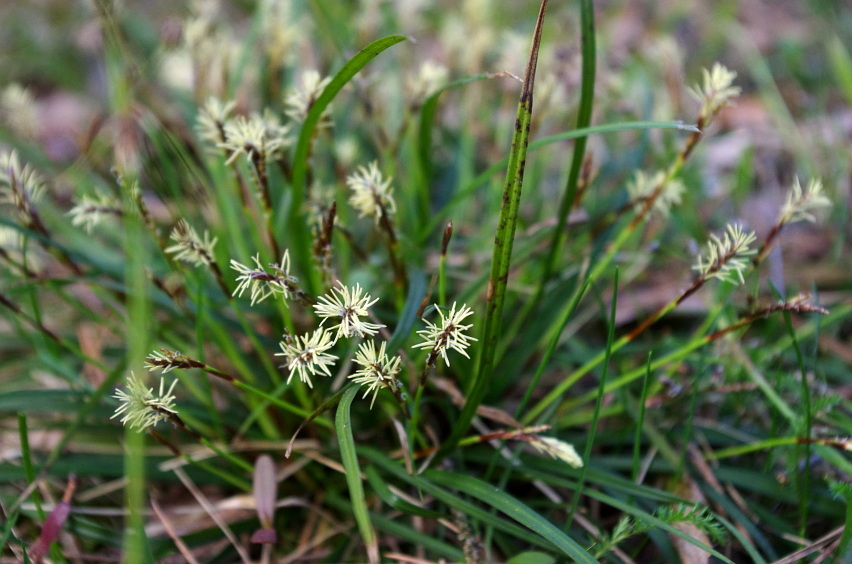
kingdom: Plantae
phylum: Tracheophyta
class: Liliopsida
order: Poales
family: Cyperaceae
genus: Carex
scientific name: Carex digitata
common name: Fingered sedge
